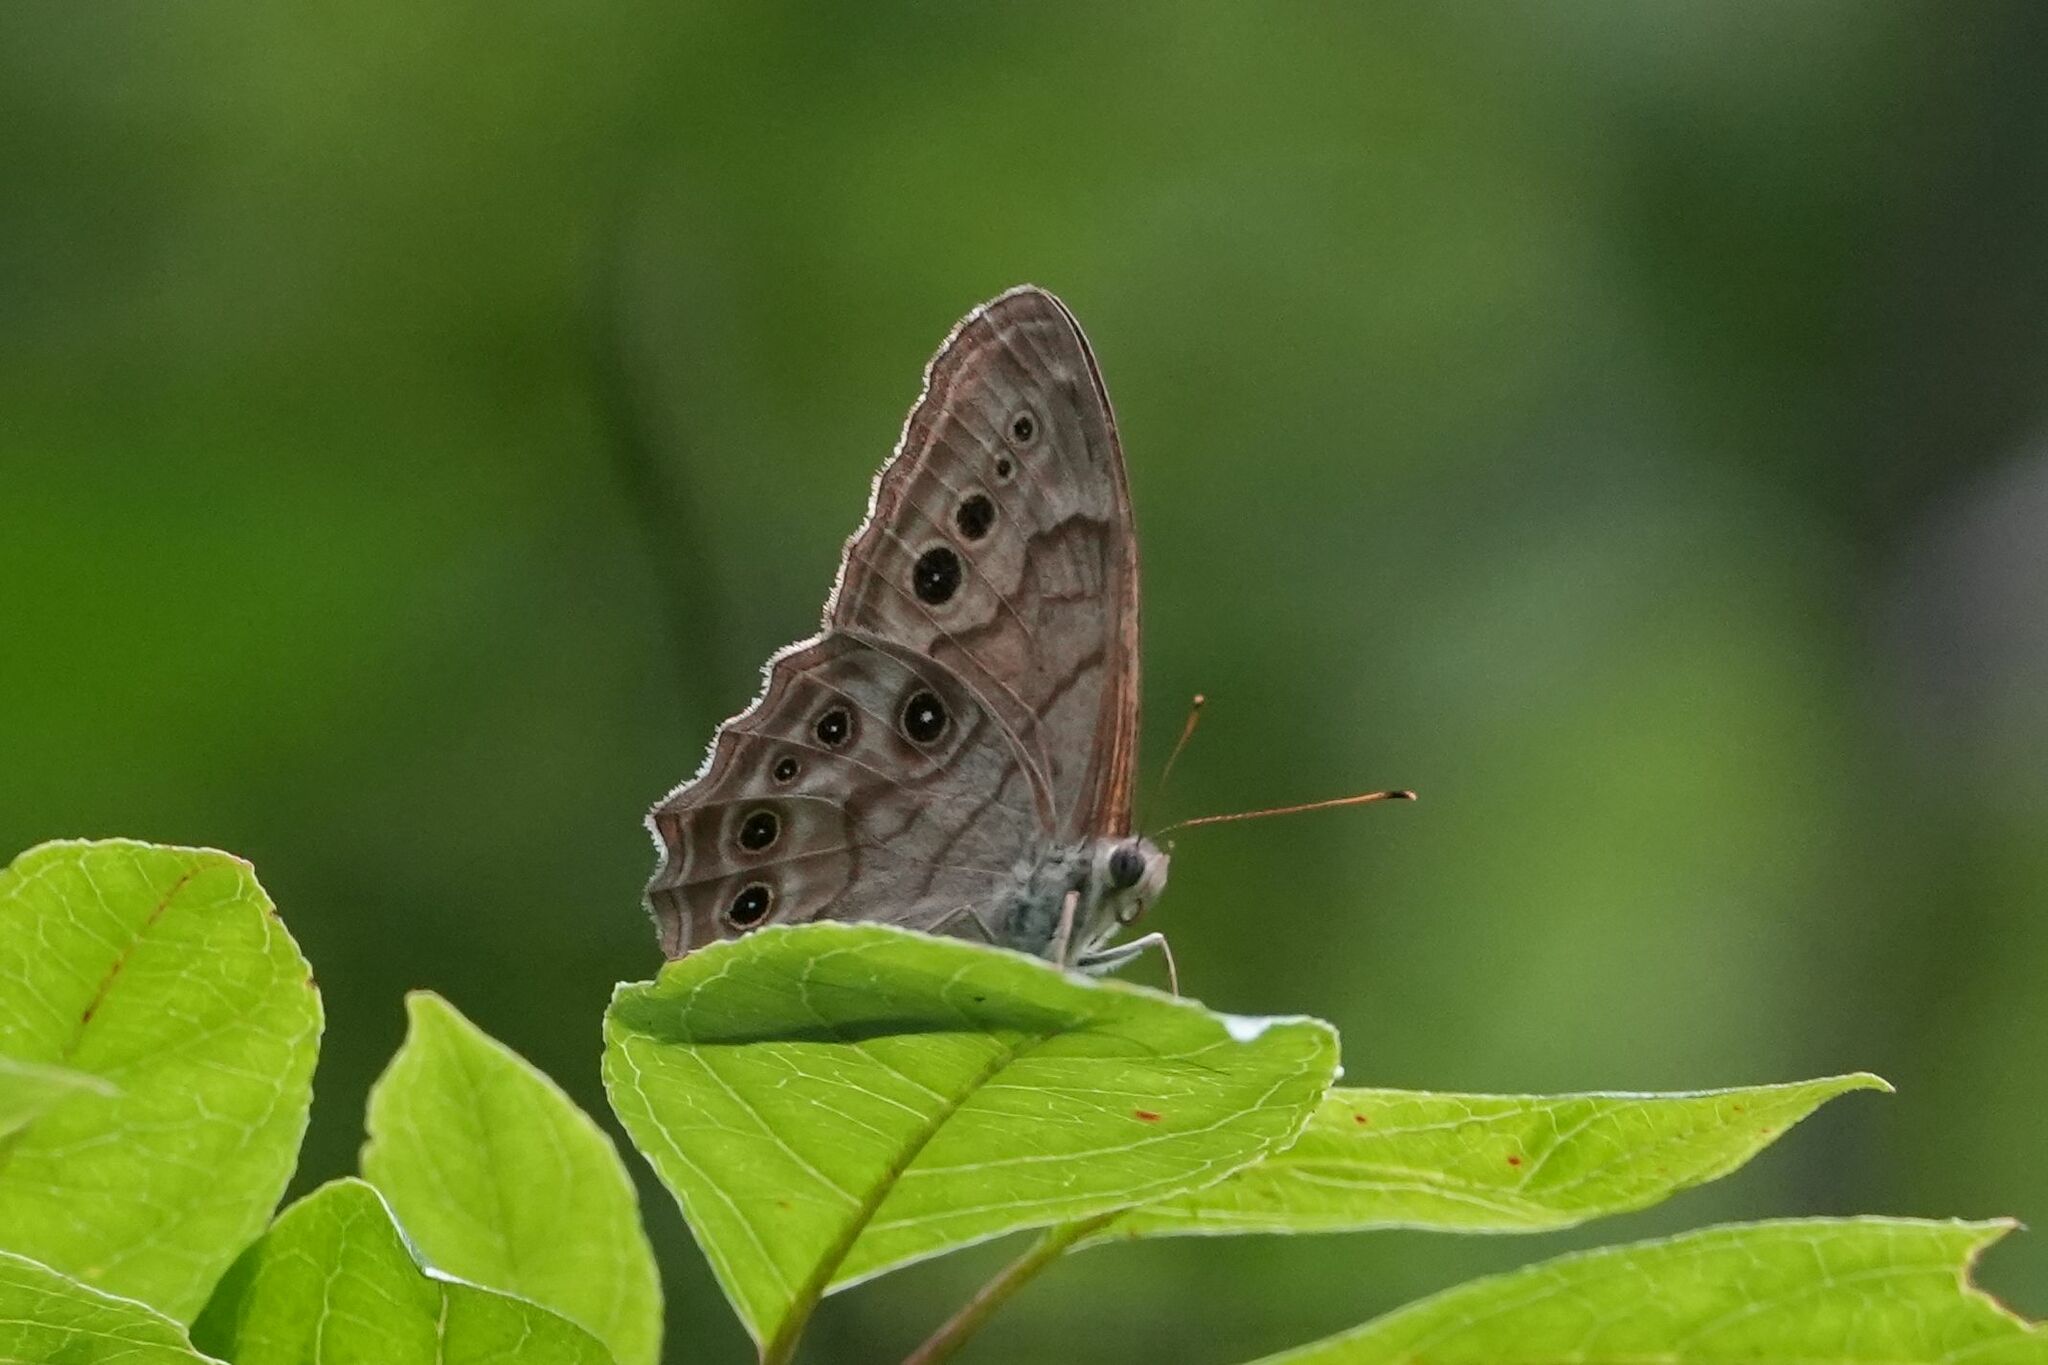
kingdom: Animalia
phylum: Arthropoda
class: Insecta
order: Lepidoptera
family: Nymphalidae
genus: Lethe
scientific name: Lethe anthedon
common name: Northern pearly-eye
